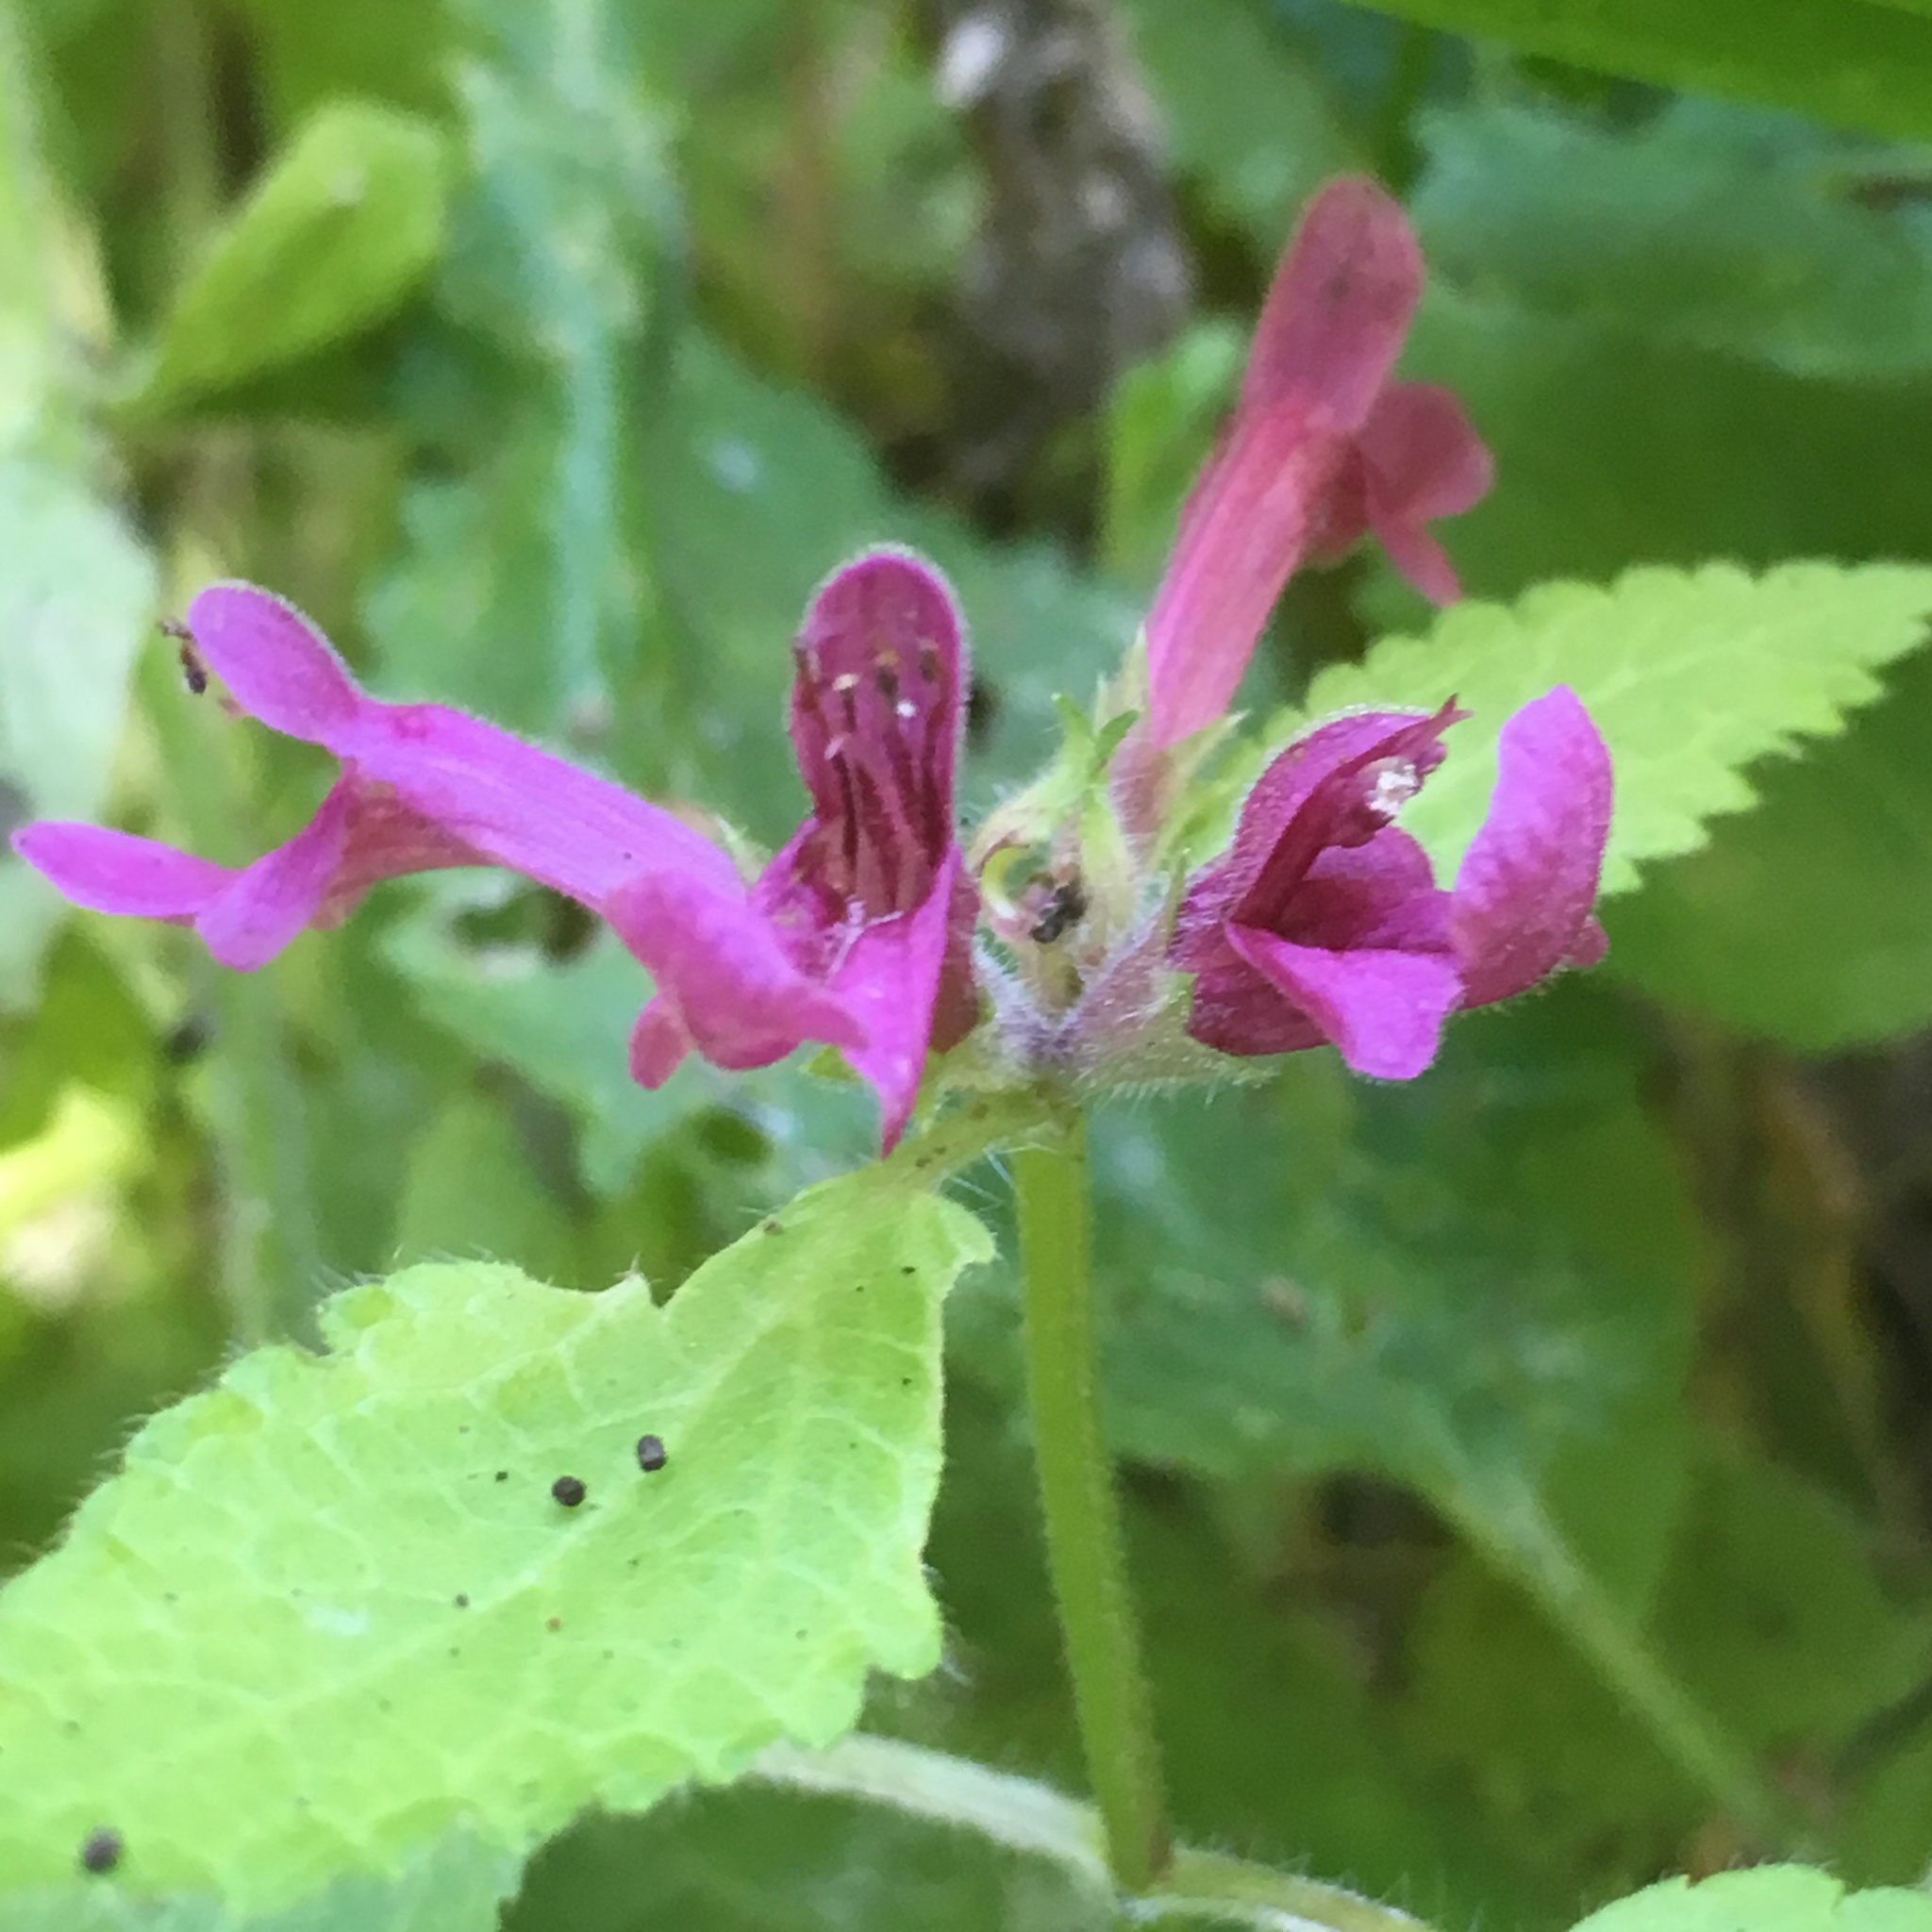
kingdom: Plantae
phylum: Tracheophyta
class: Magnoliopsida
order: Lamiales
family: Lamiaceae
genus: Stachys
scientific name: Stachys chamissonis
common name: Coastal hedge-nettle
